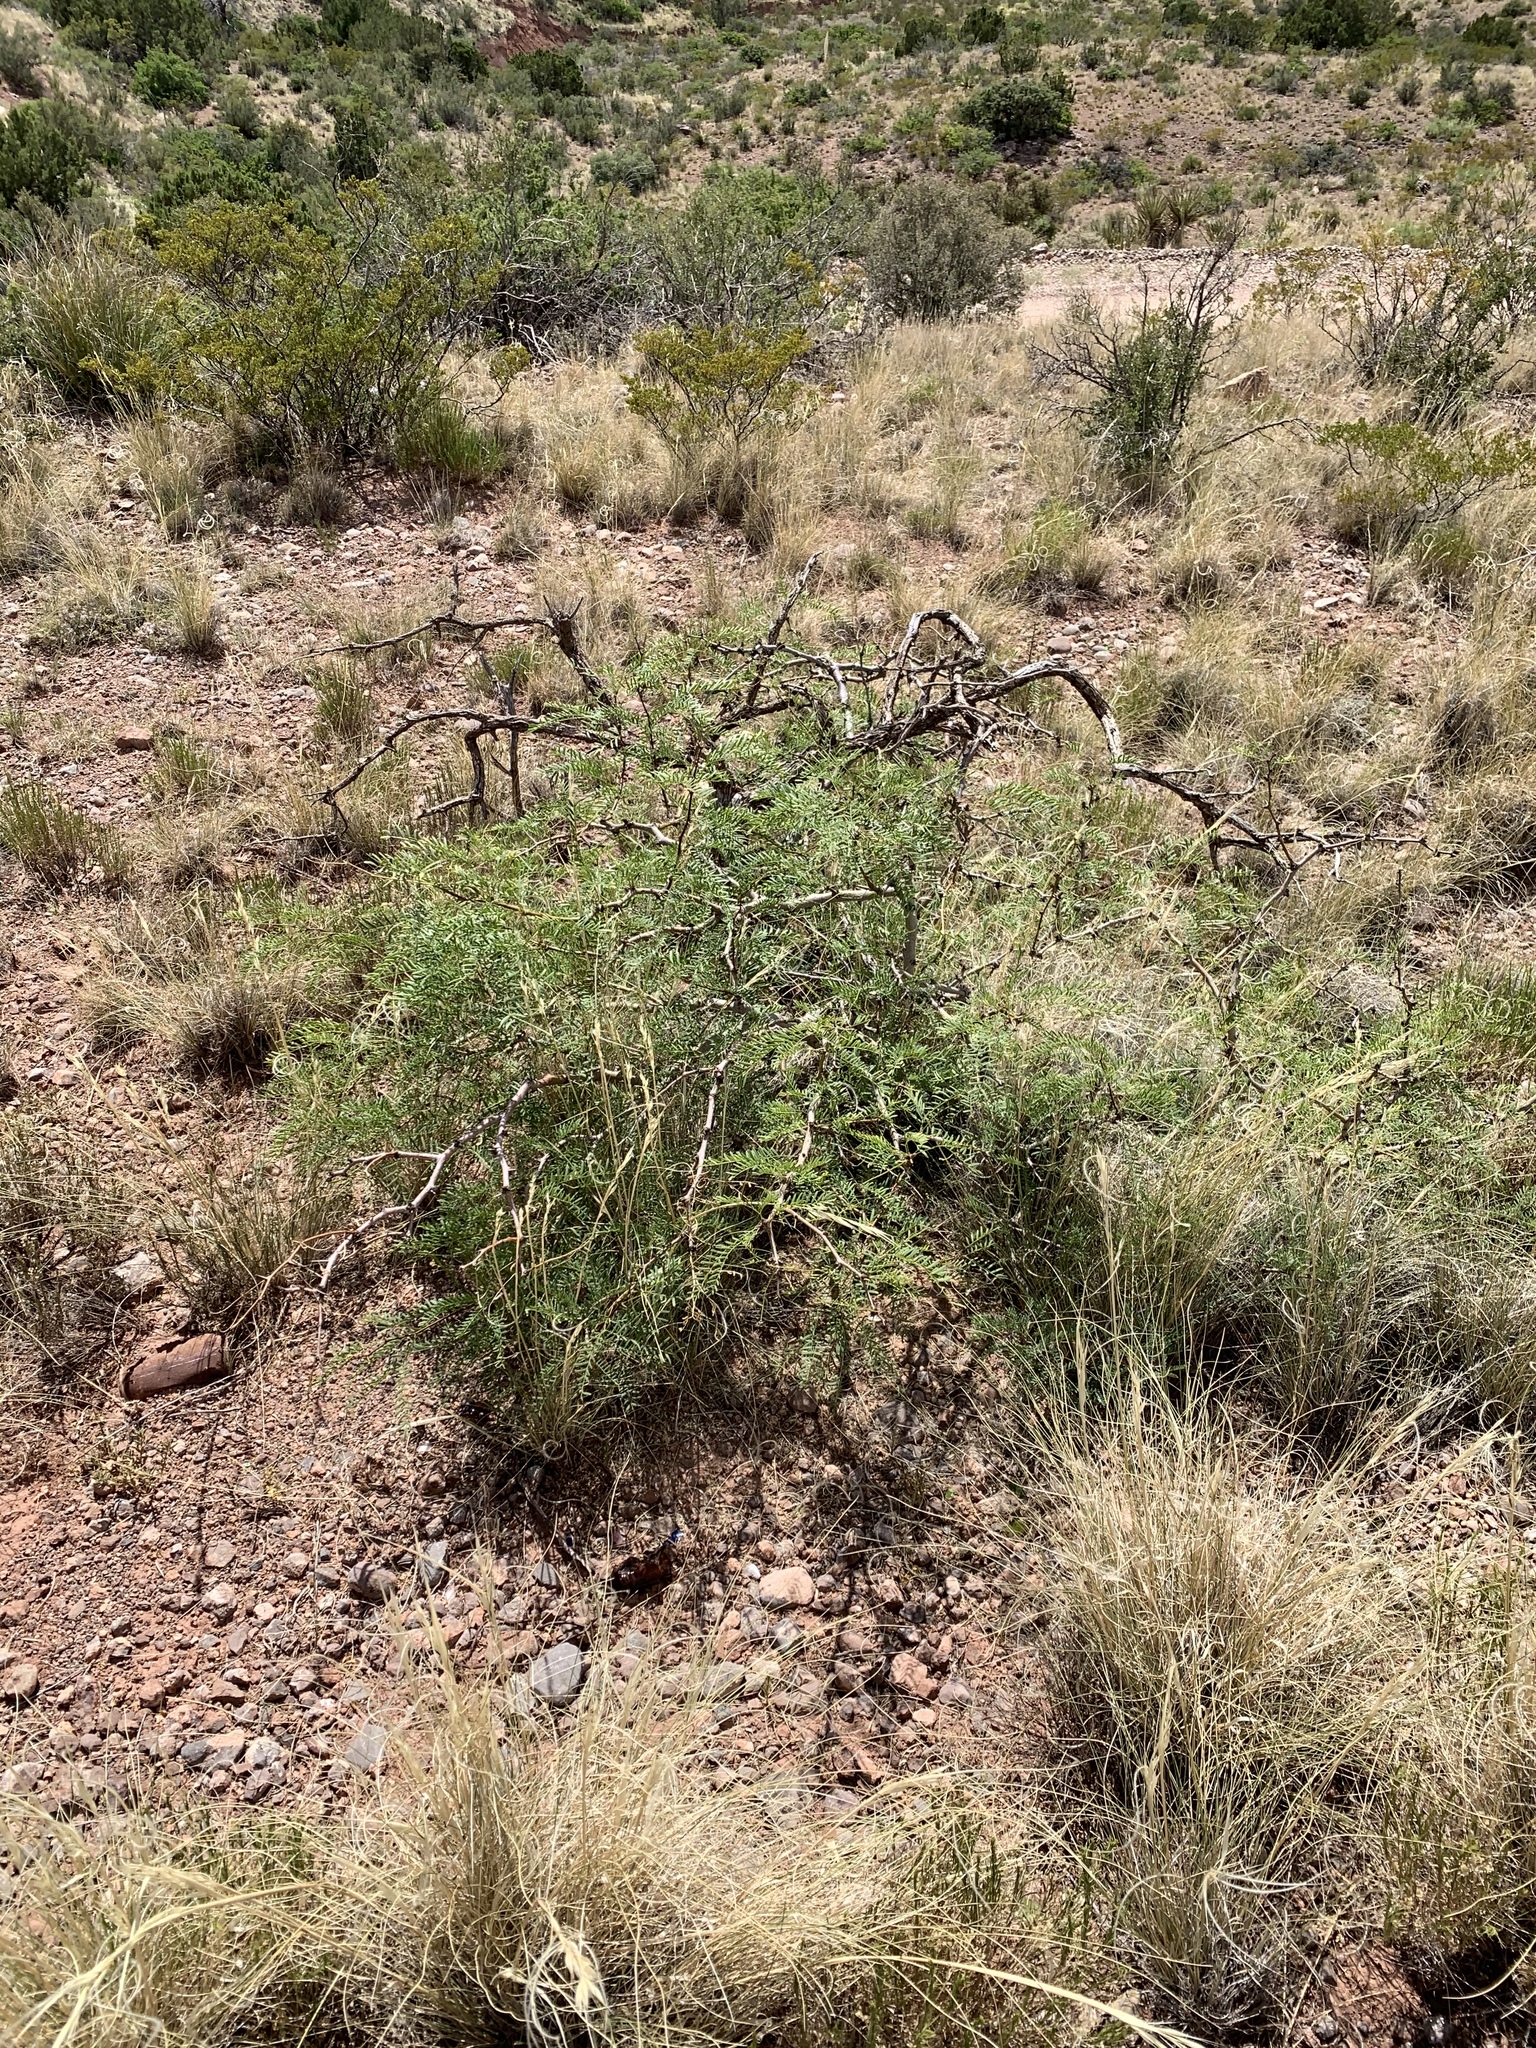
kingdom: Plantae
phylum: Tracheophyta
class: Magnoliopsida
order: Fabales
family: Fabaceae
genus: Prosopis
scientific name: Prosopis glandulosa
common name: Honey mesquite
